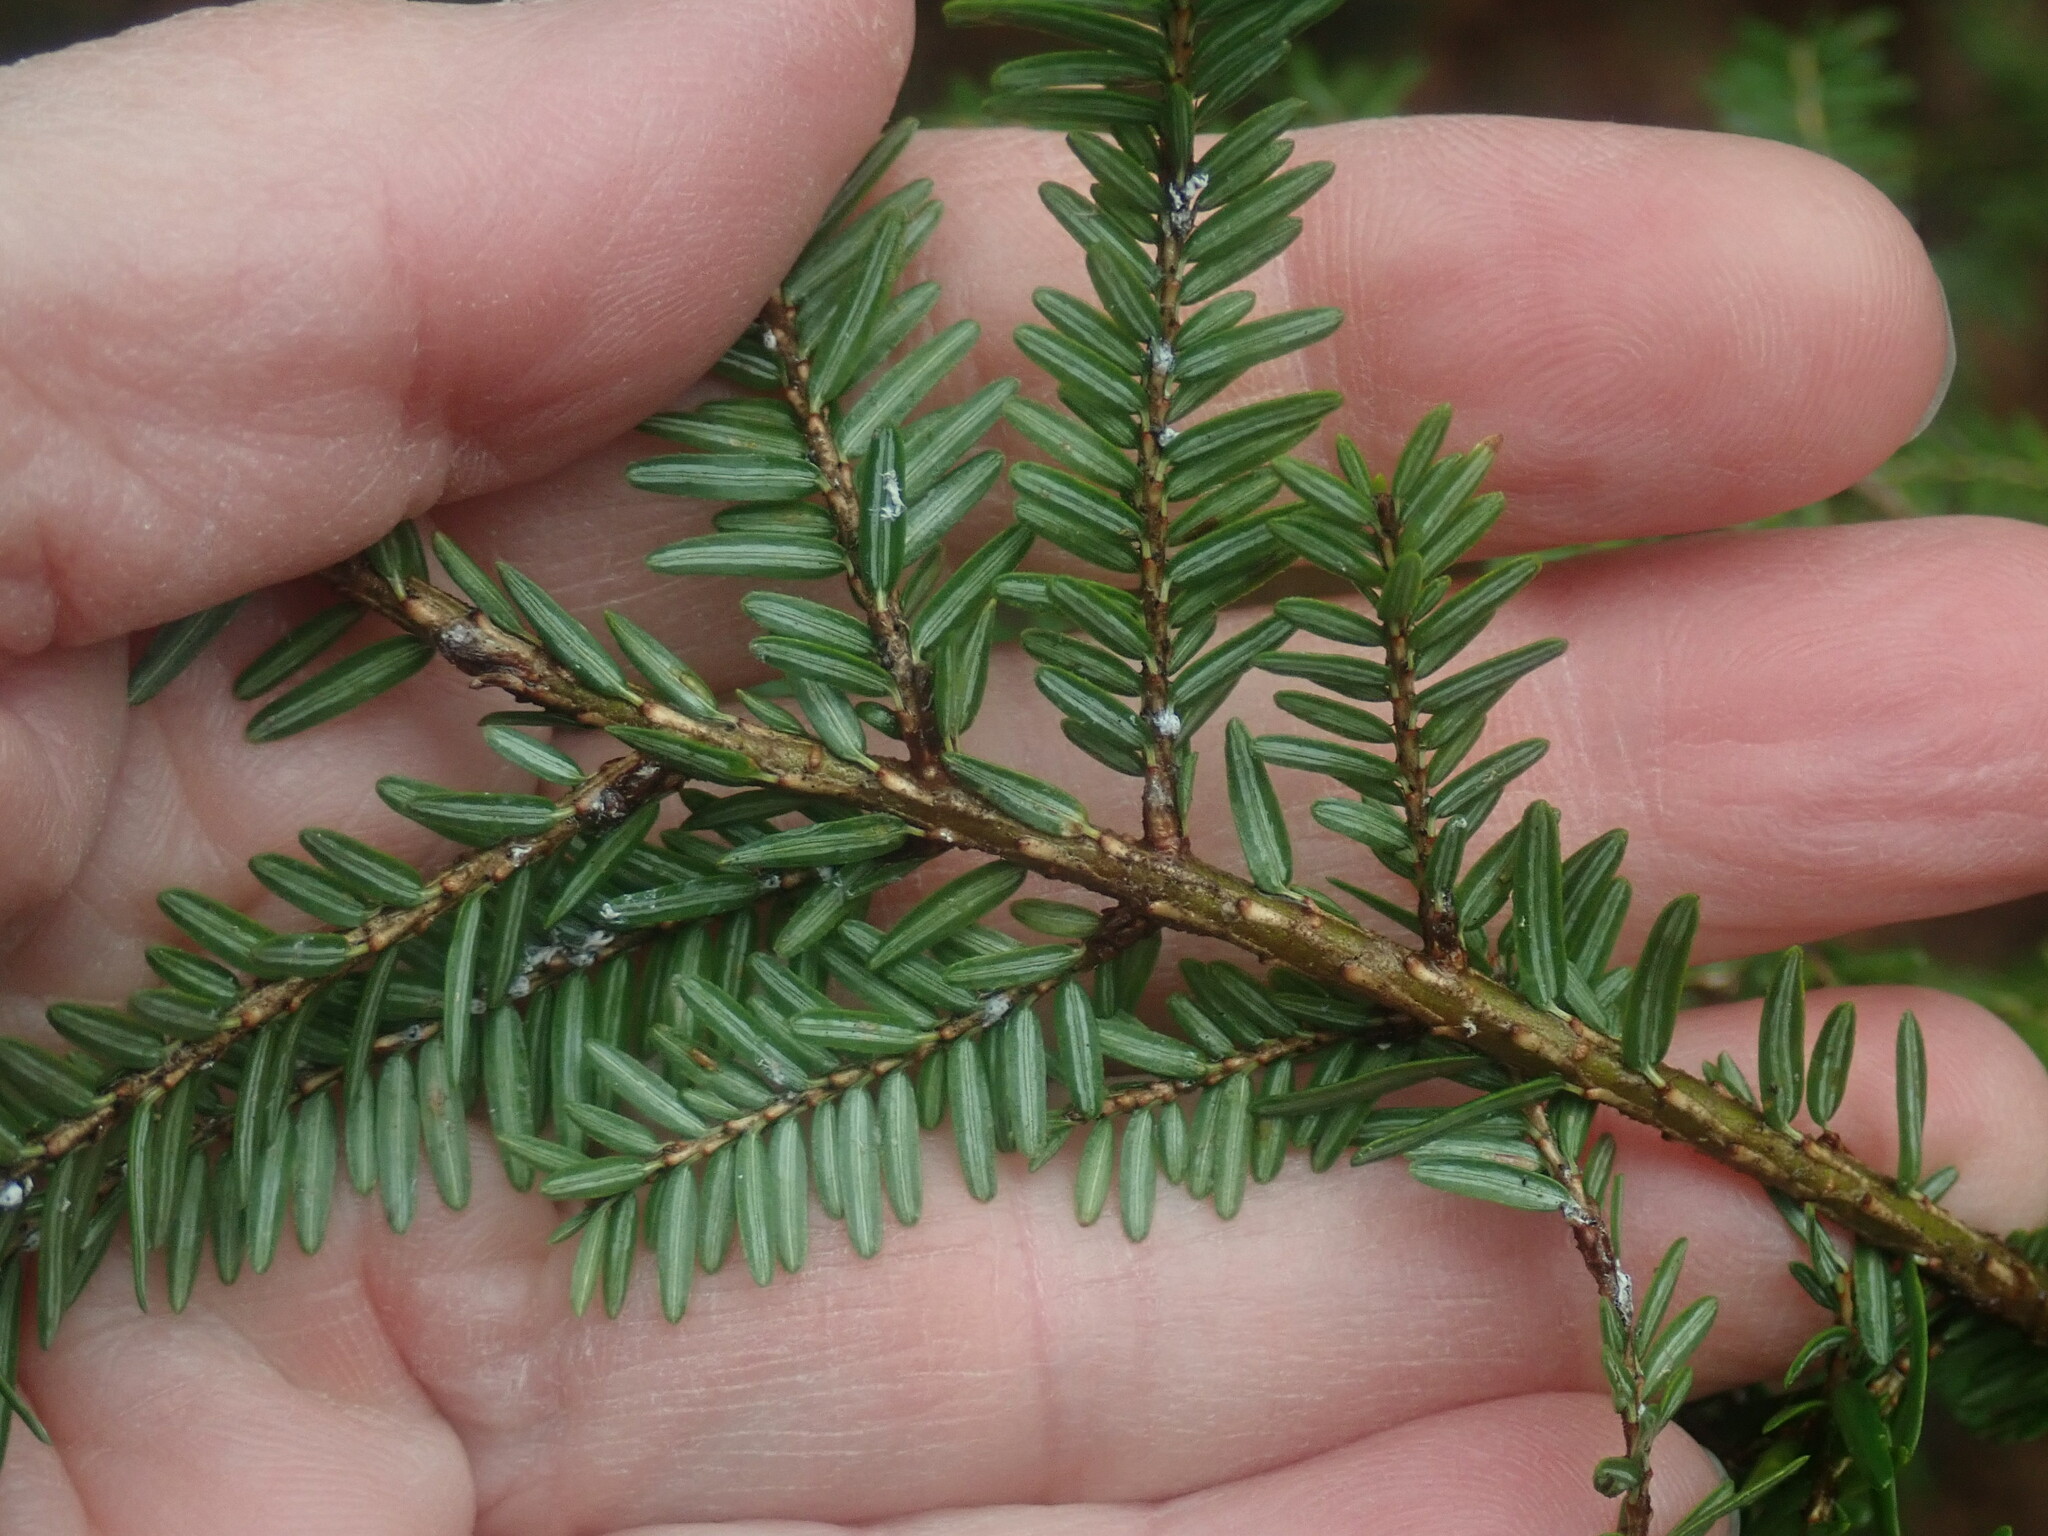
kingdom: Plantae
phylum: Tracheophyta
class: Pinopsida
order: Pinales
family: Pinaceae
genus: Tsuga
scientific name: Tsuga canadensis
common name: Eastern hemlock
